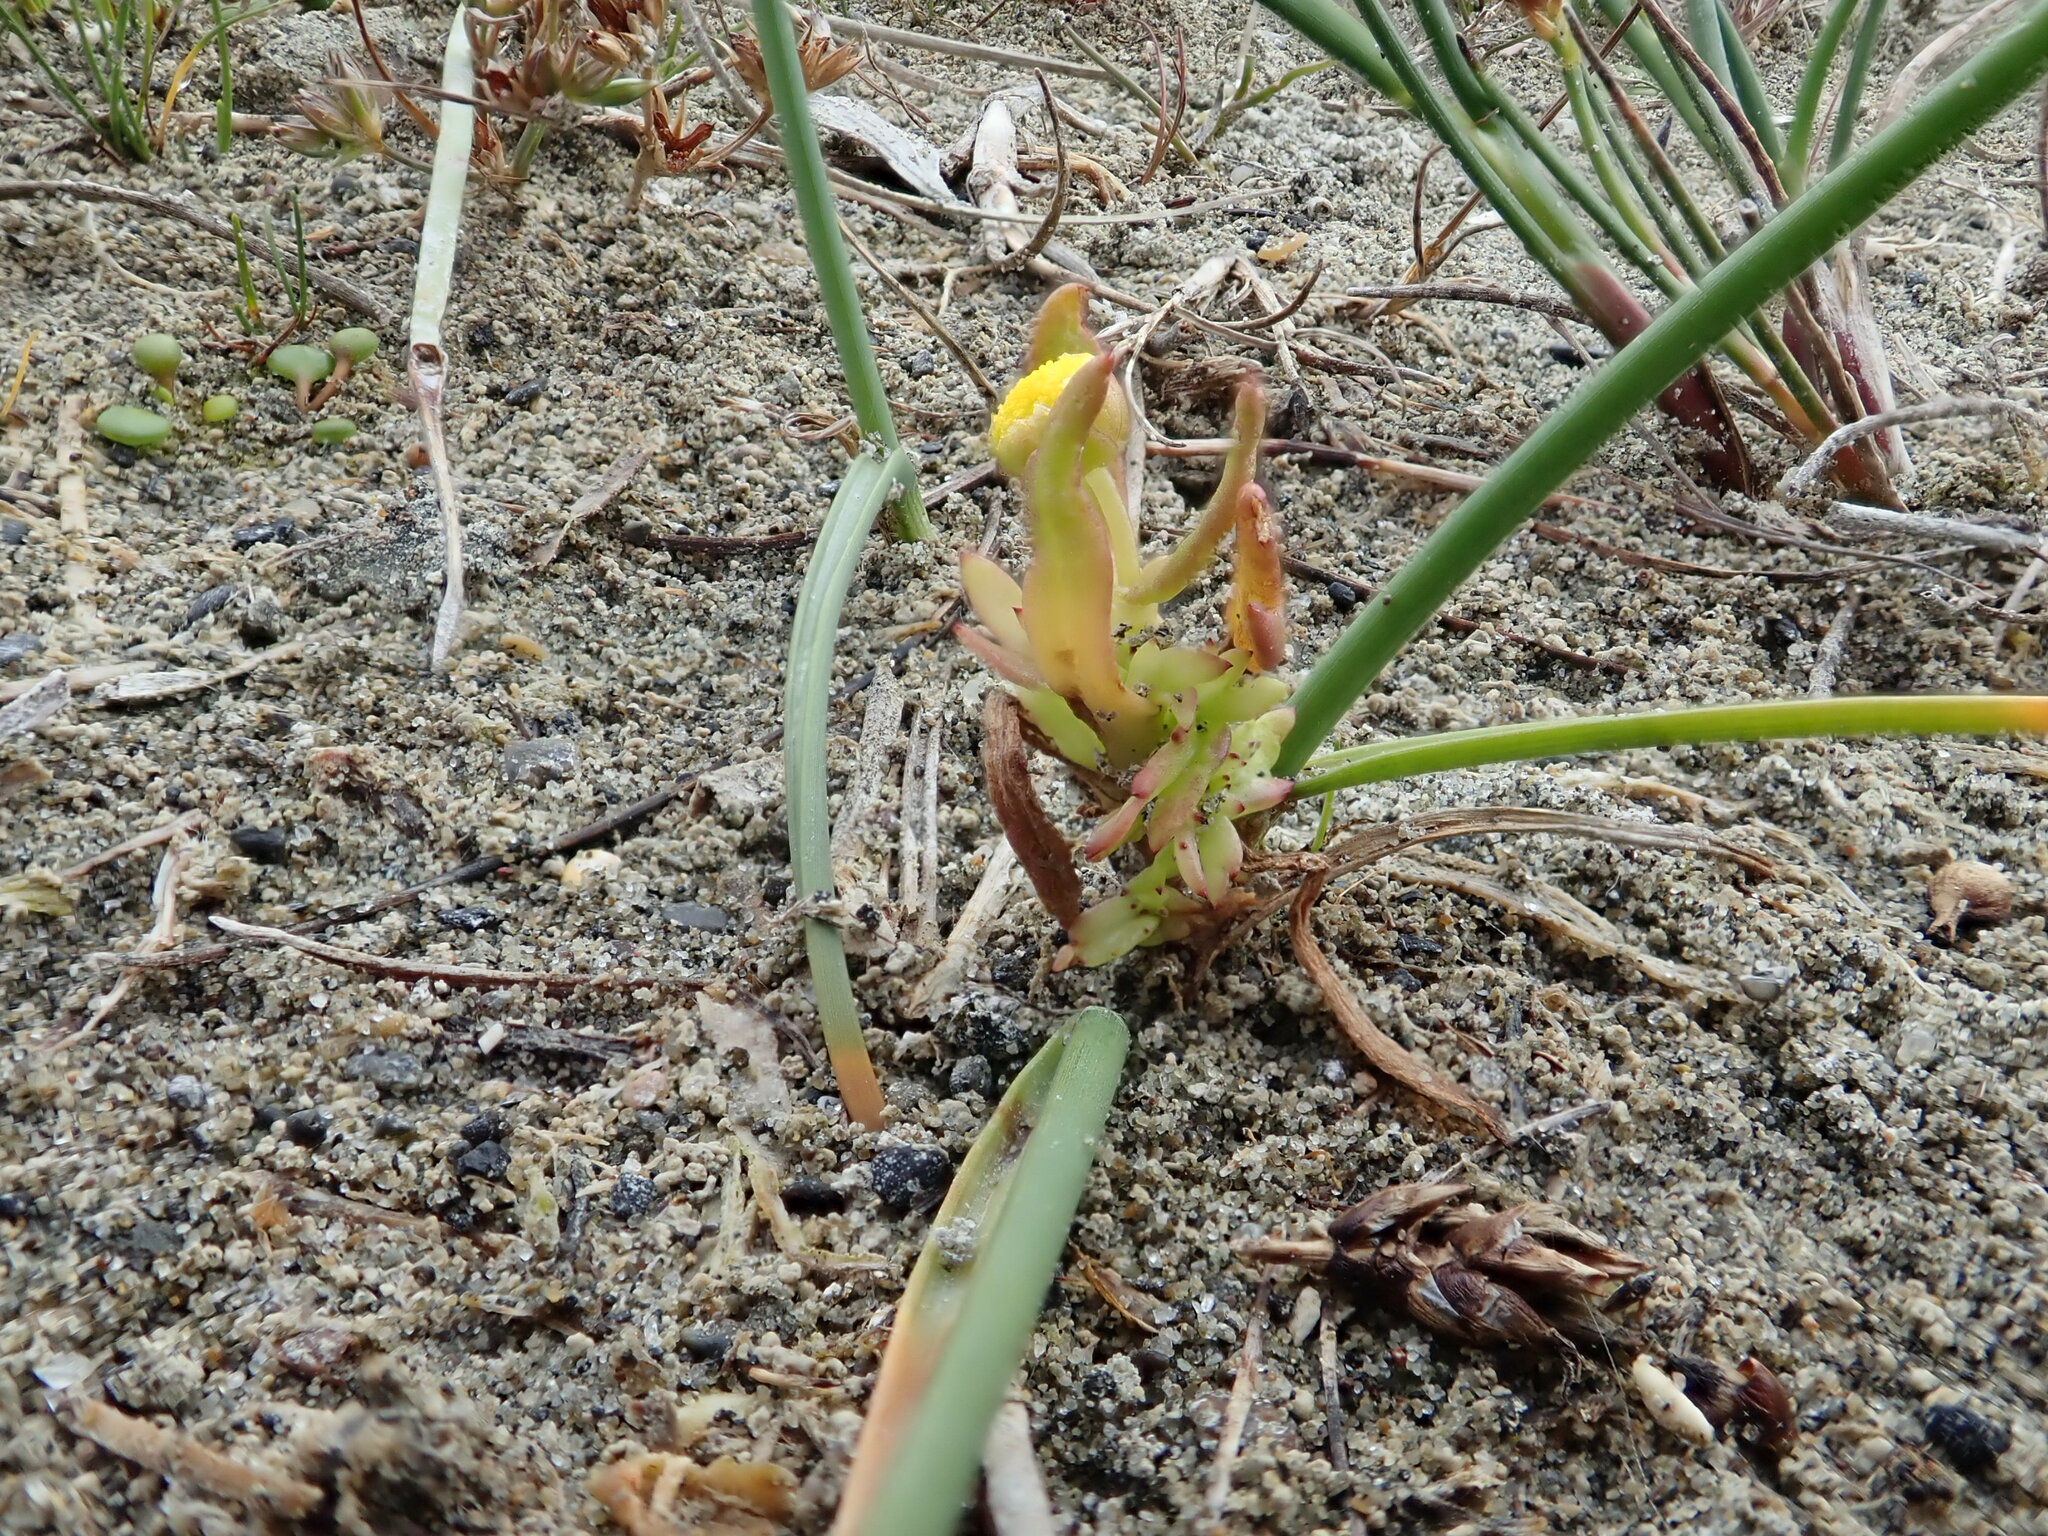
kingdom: Plantae
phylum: Tracheophyta
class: Magnoliopsida
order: Asterales
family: Asteraceae
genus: Cotula
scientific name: Cotula coronopifolia
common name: Buttonweed
